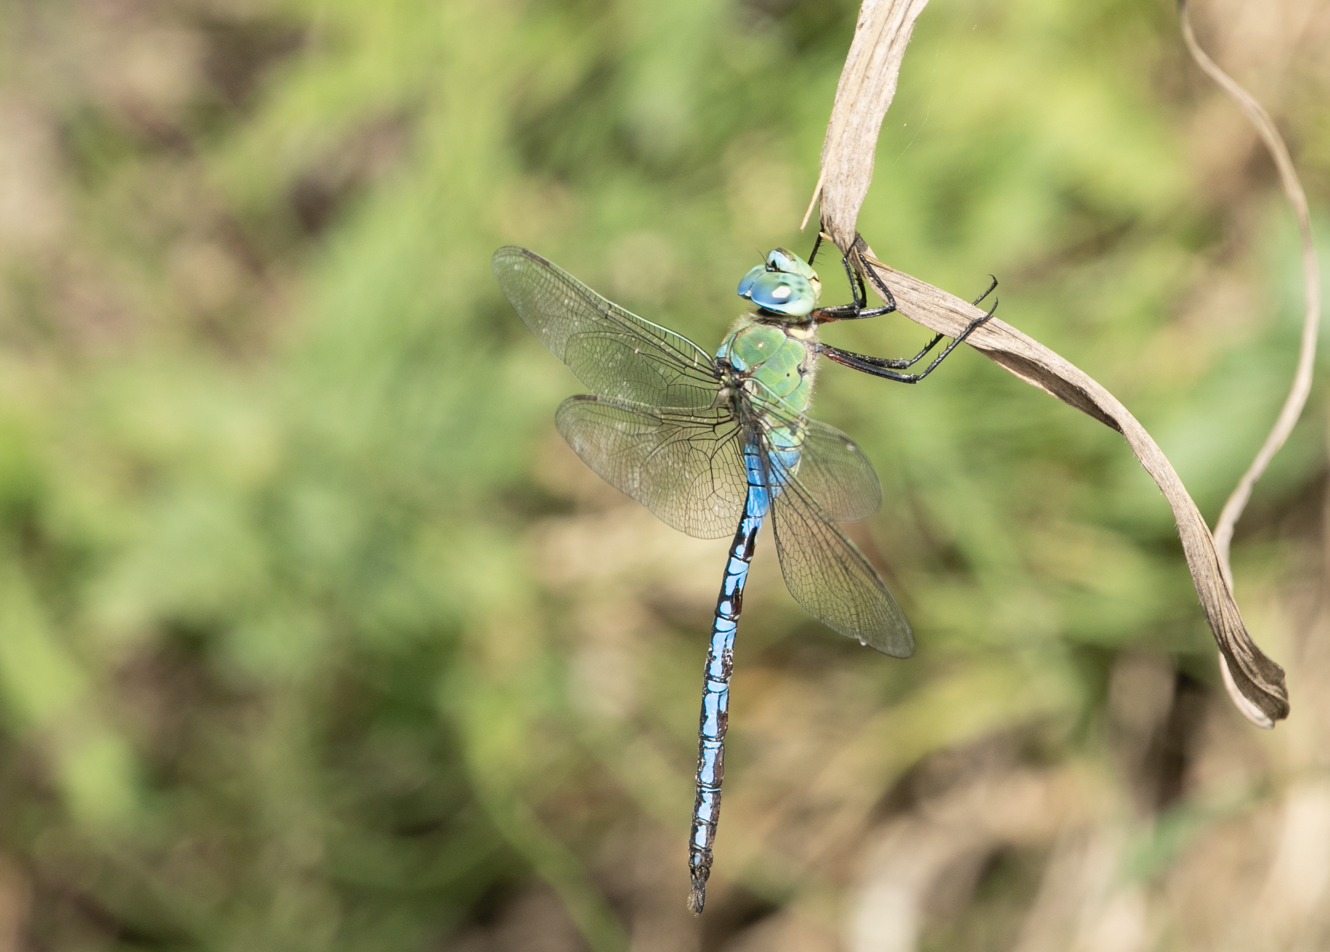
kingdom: Animalia
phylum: Arthropoda
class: Insecta
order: Odonata
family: Aeshnidae
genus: Anax
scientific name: Anax imperator
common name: Emperor dragonfly
